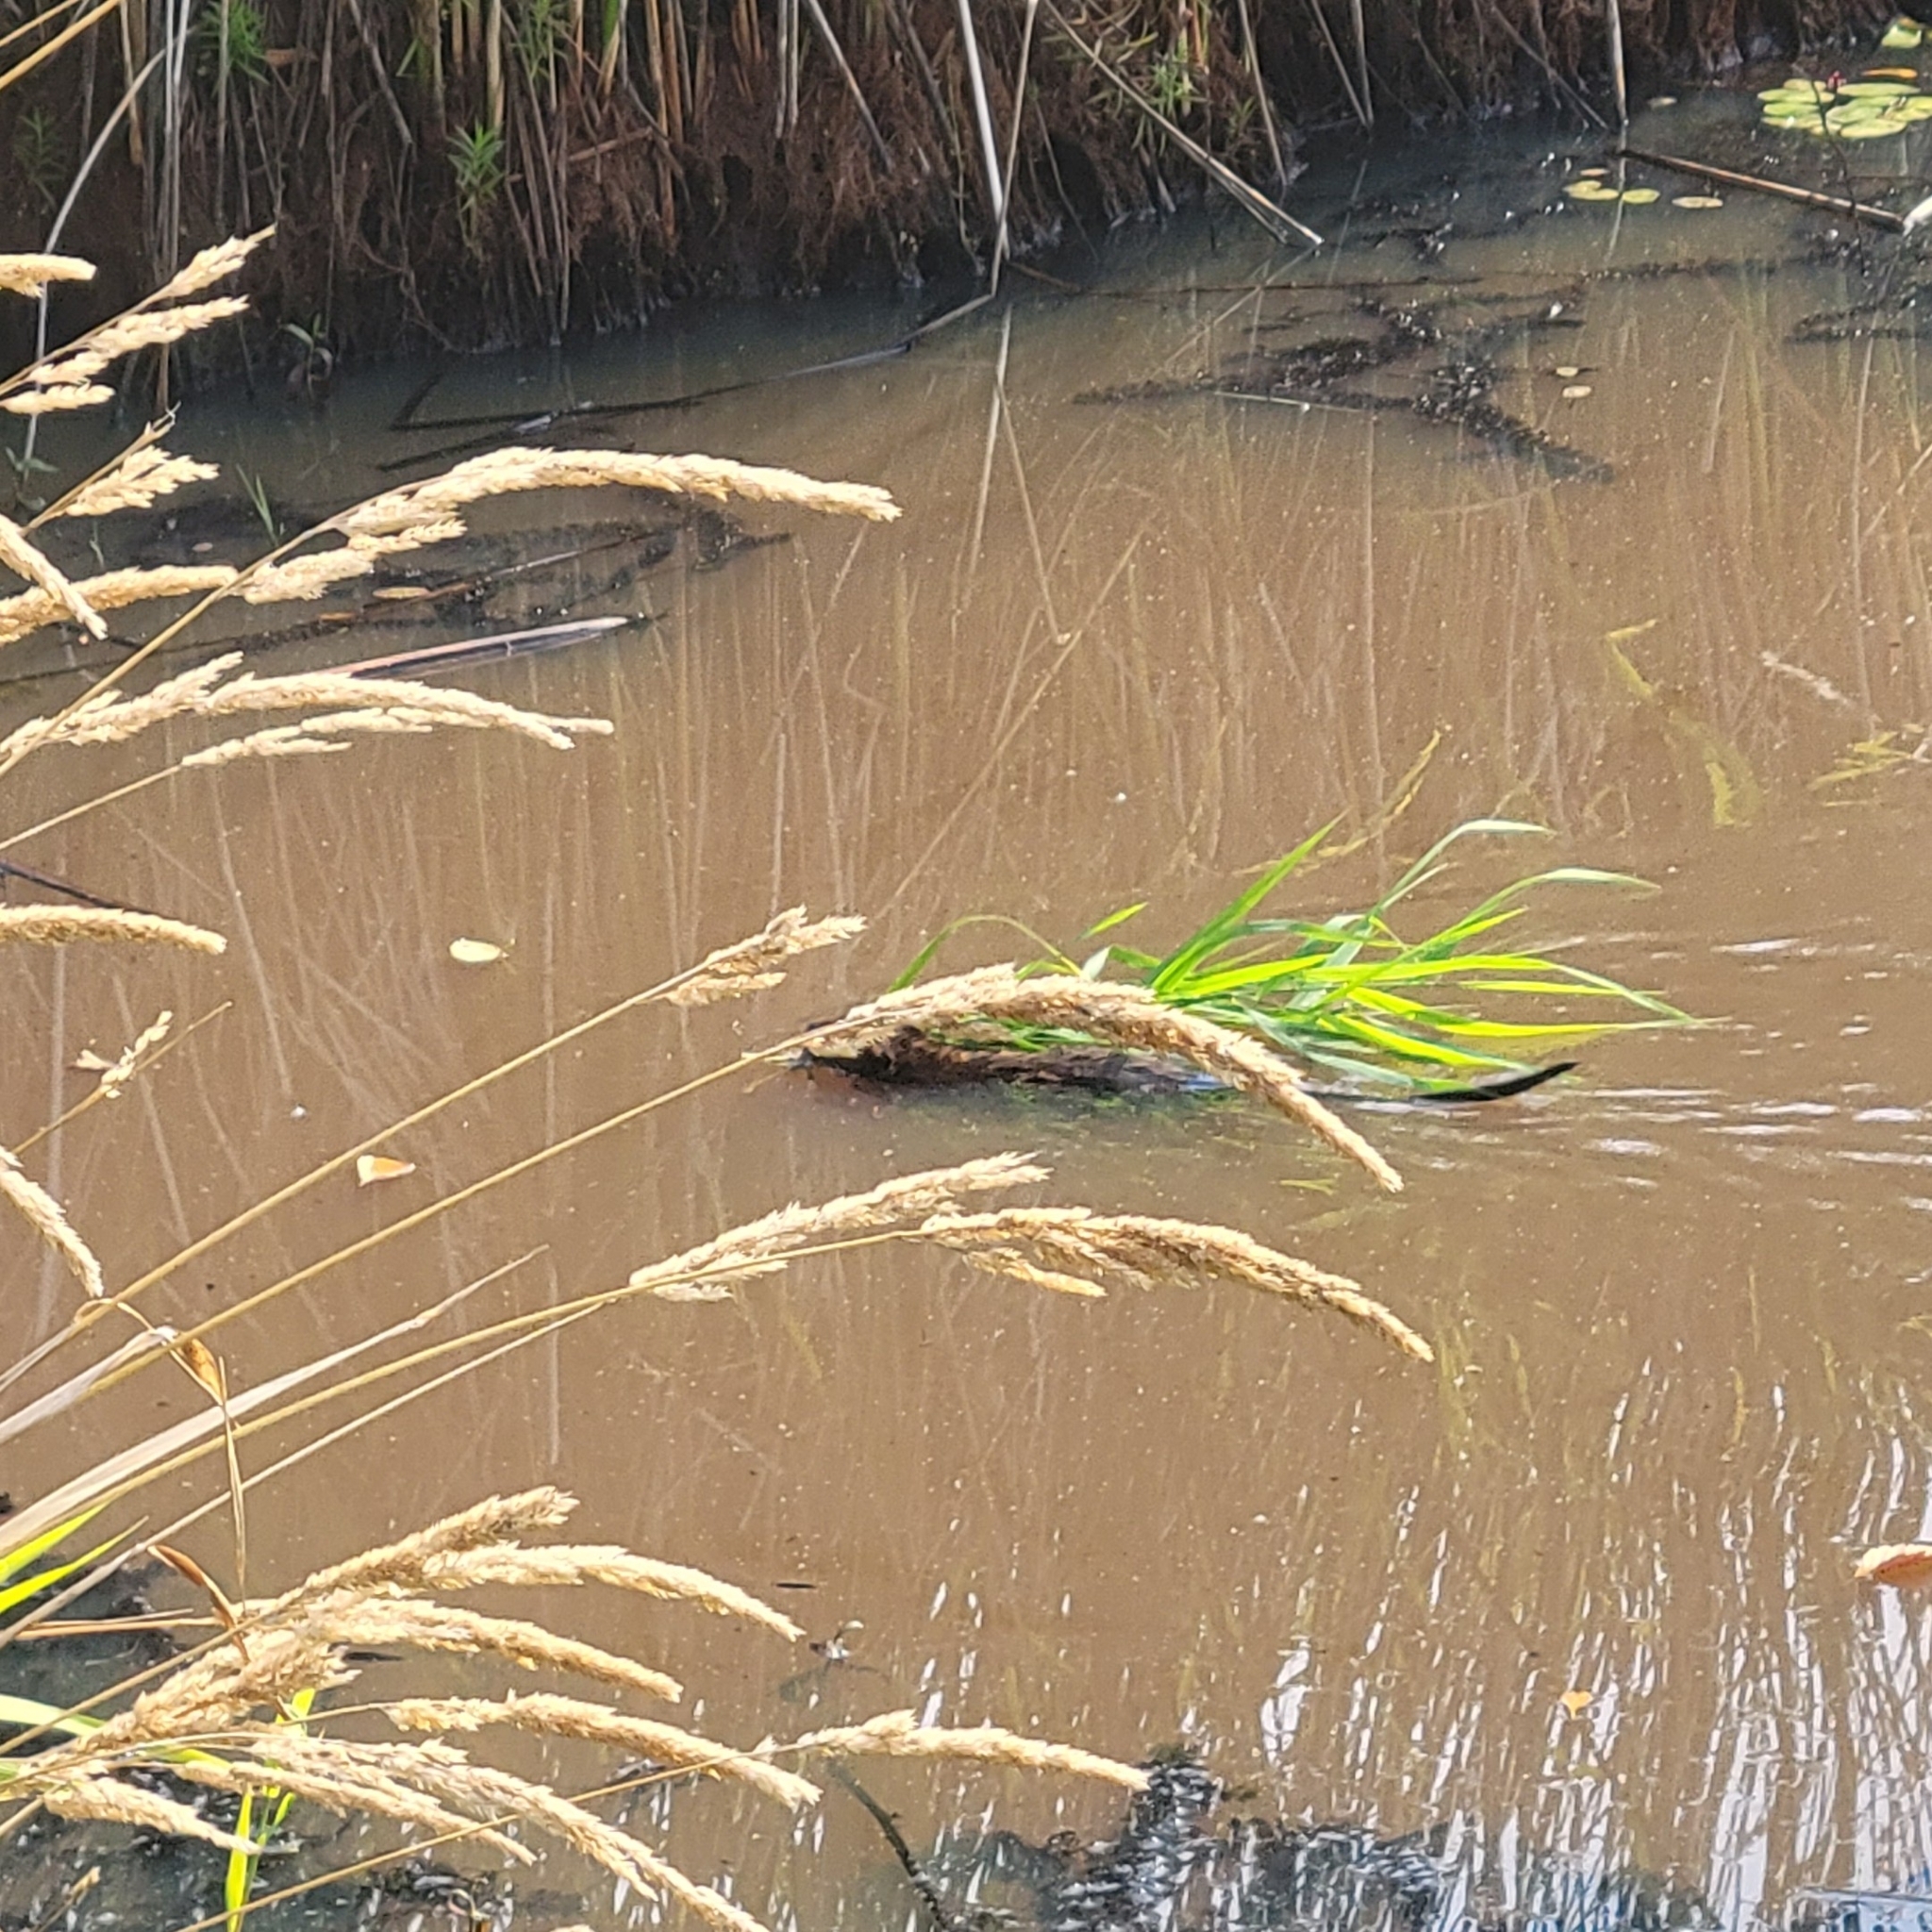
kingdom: Animalia
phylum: Chordata
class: Mammalia
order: Rodentia
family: Cricetidae
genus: Ondatra
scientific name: Ondatra zibethicus
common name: Muskrat
